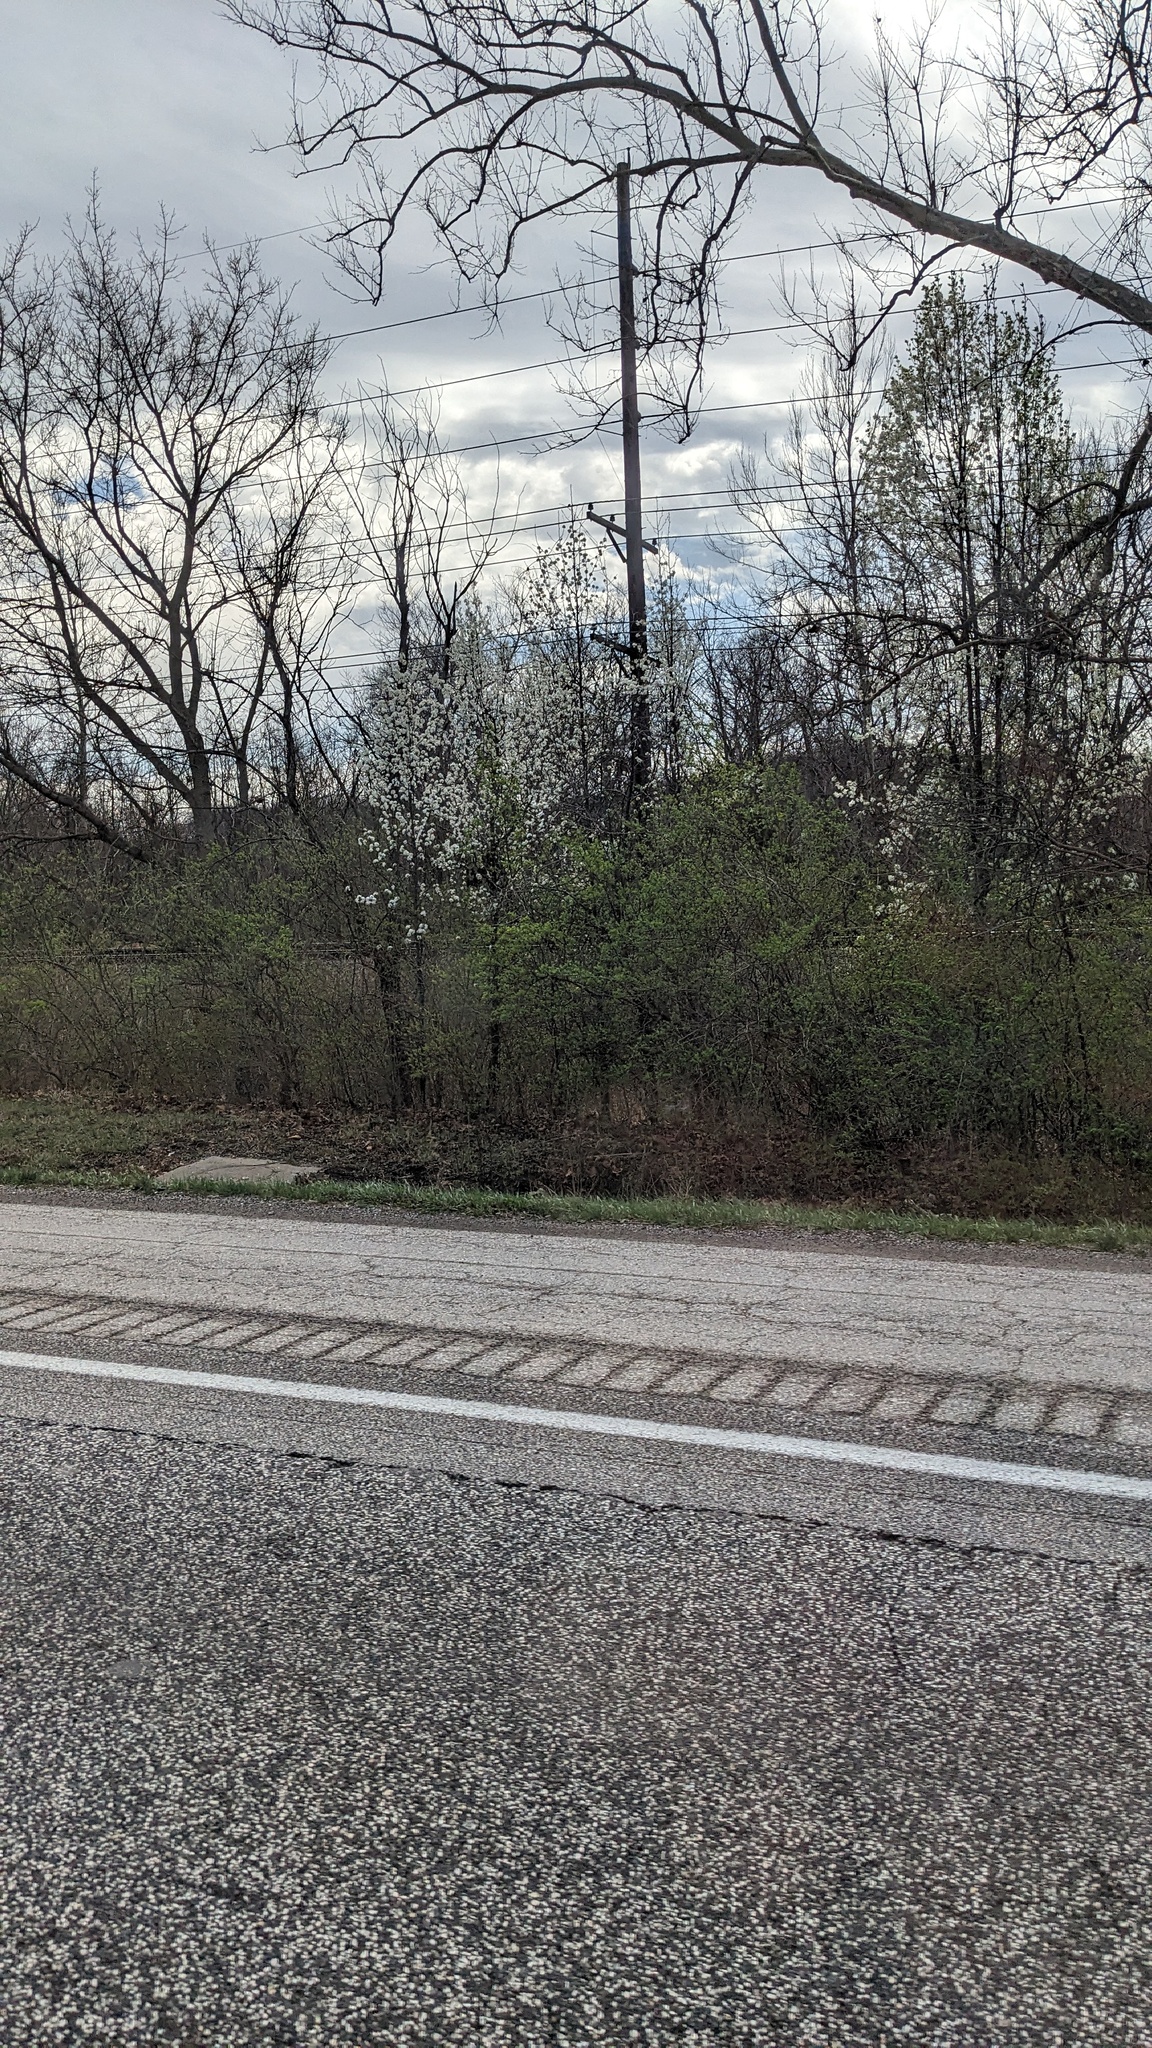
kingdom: Plantae
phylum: Tracheophyta
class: Magnoliopsida
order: Rosales
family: Rosaceae
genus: Pyrus
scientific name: Pyrus calleryana
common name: Callery pear
